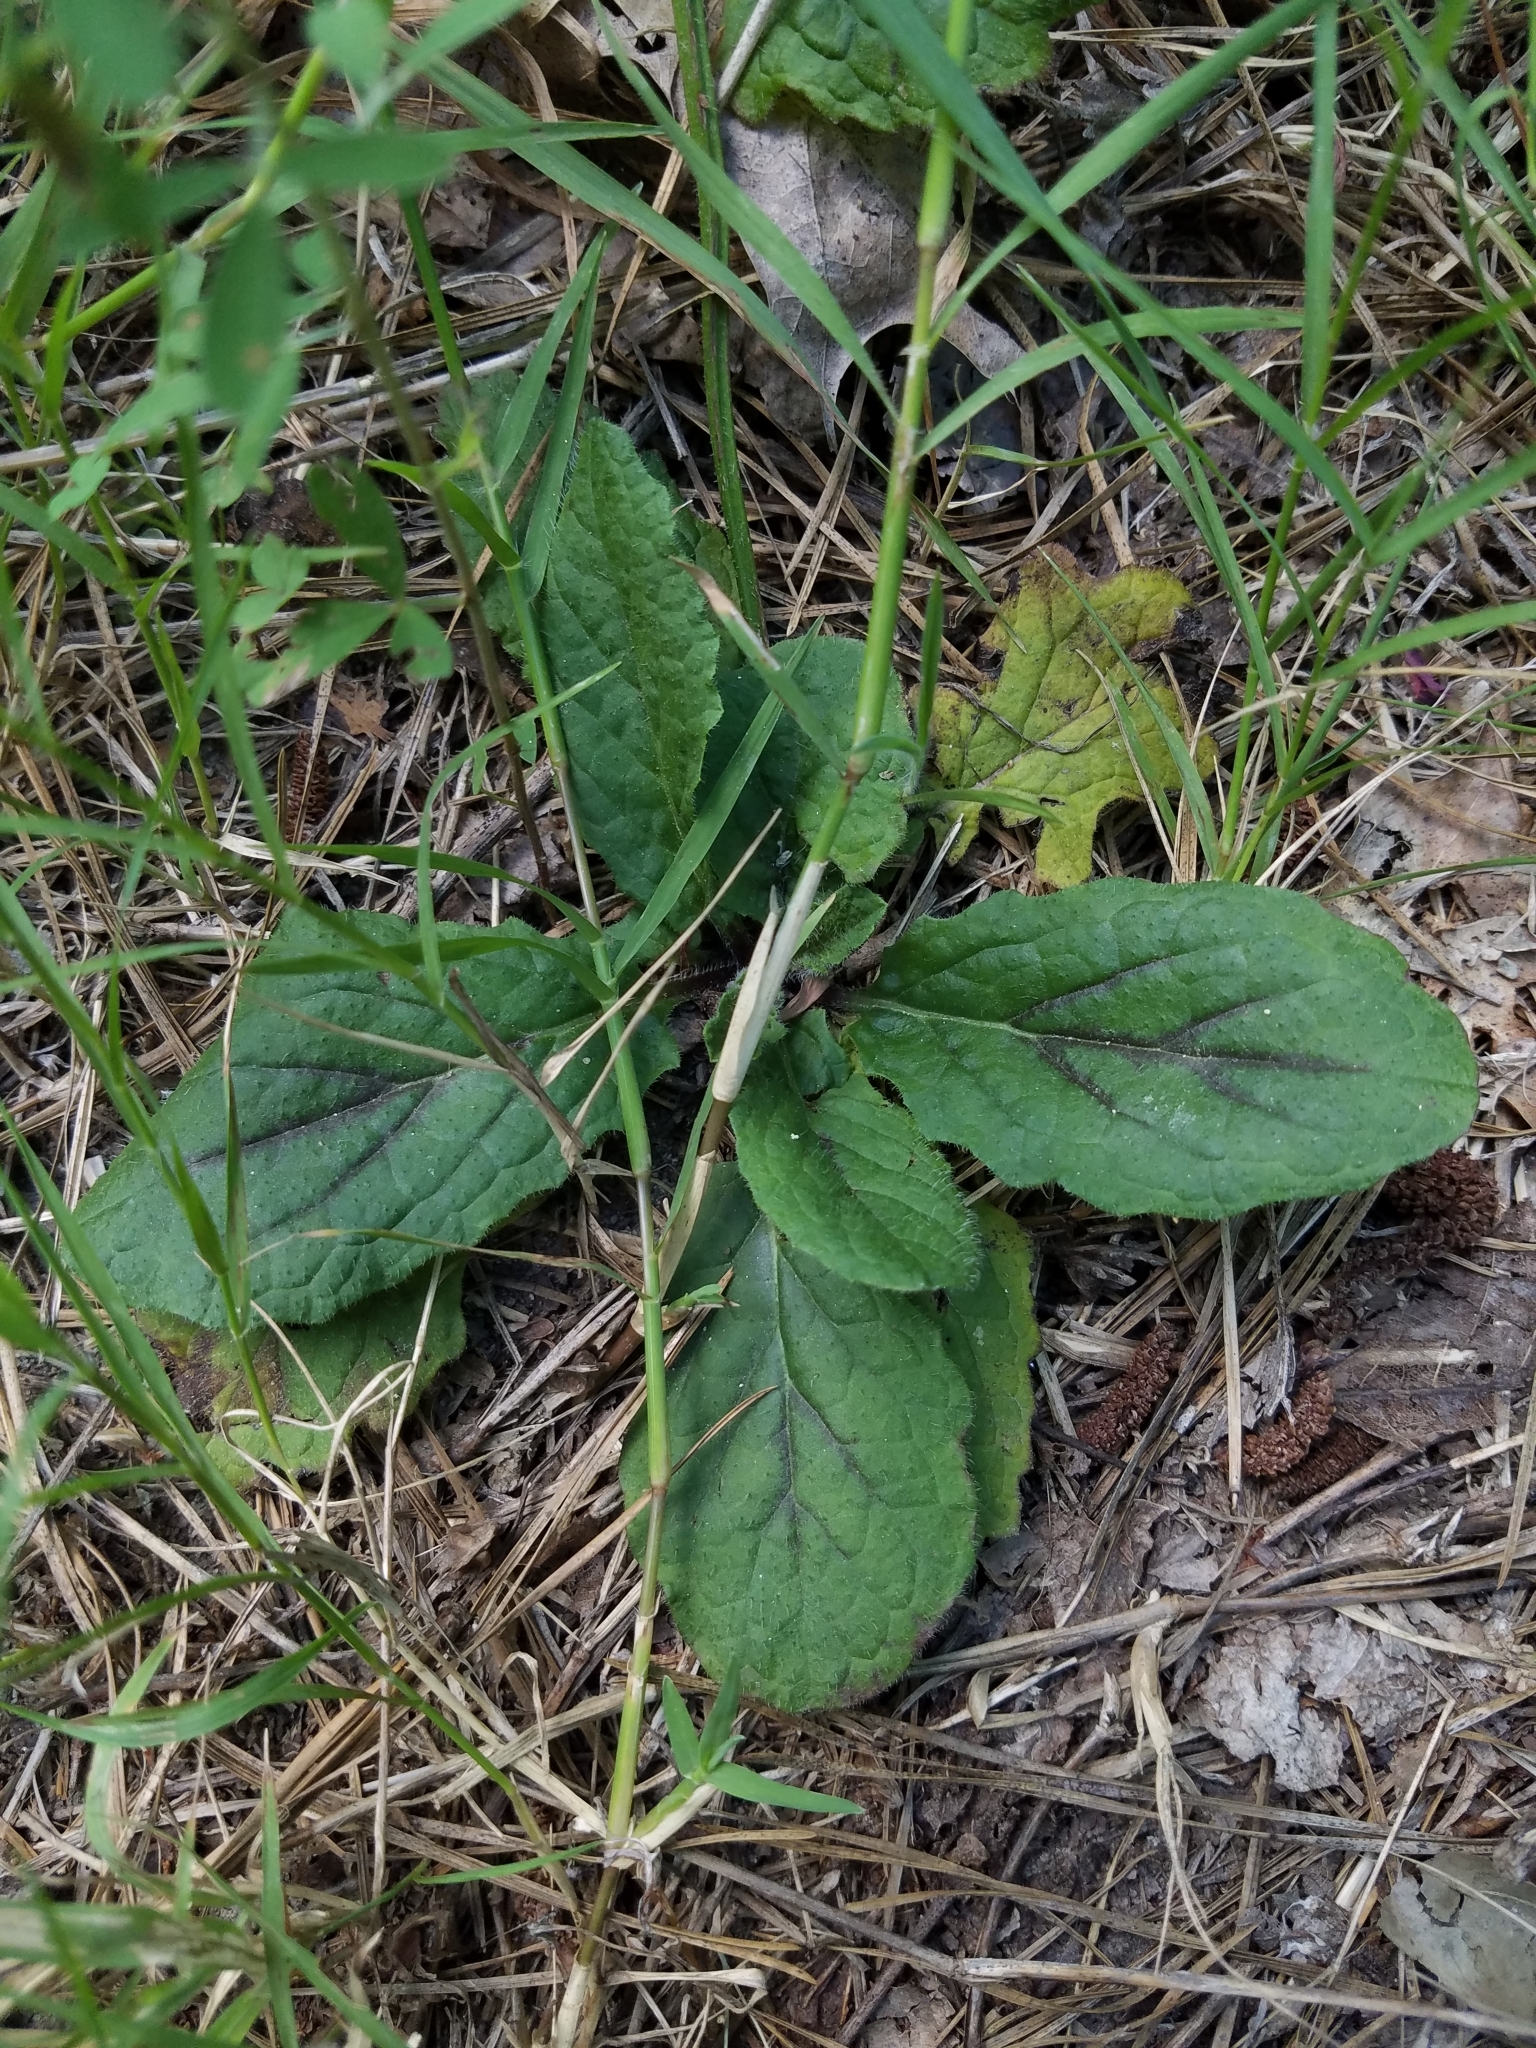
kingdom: Plantae
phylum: Tracheophyta
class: Magnoliopsida
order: Lamiales
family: Lamiaceae
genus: Salvia
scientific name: Salvia lyrata
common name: Cancerweed
